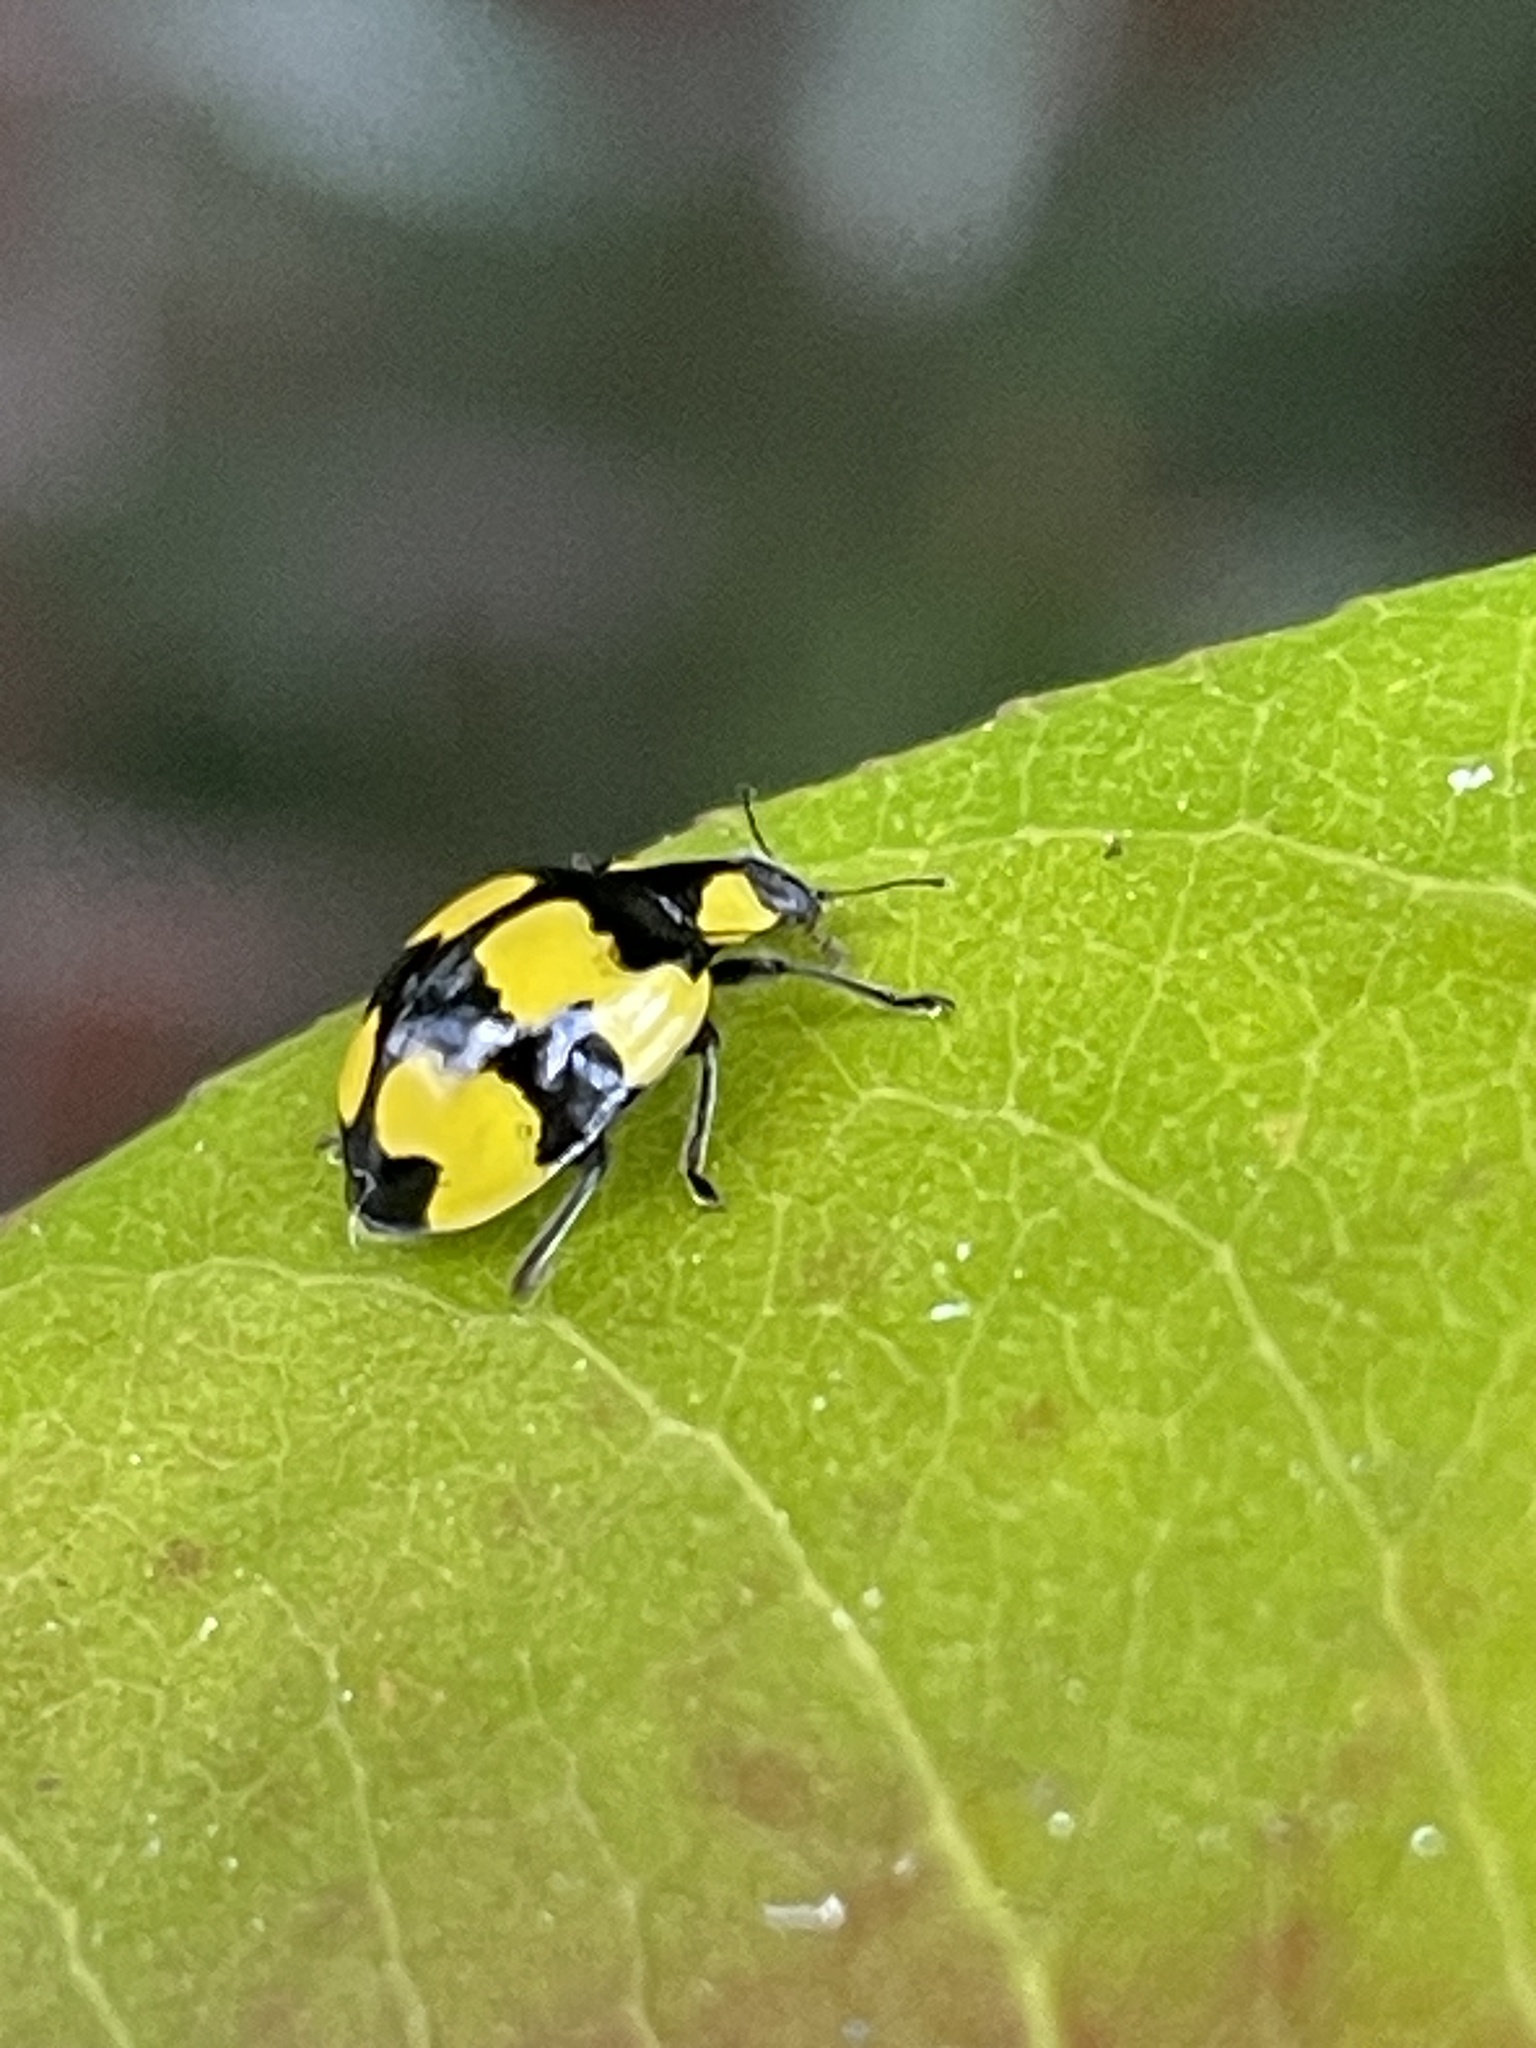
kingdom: Animalia
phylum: Arthropoda
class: Insecta
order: Coleoptera
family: Coccinellidae
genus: Illeis
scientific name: Illeis galbula
